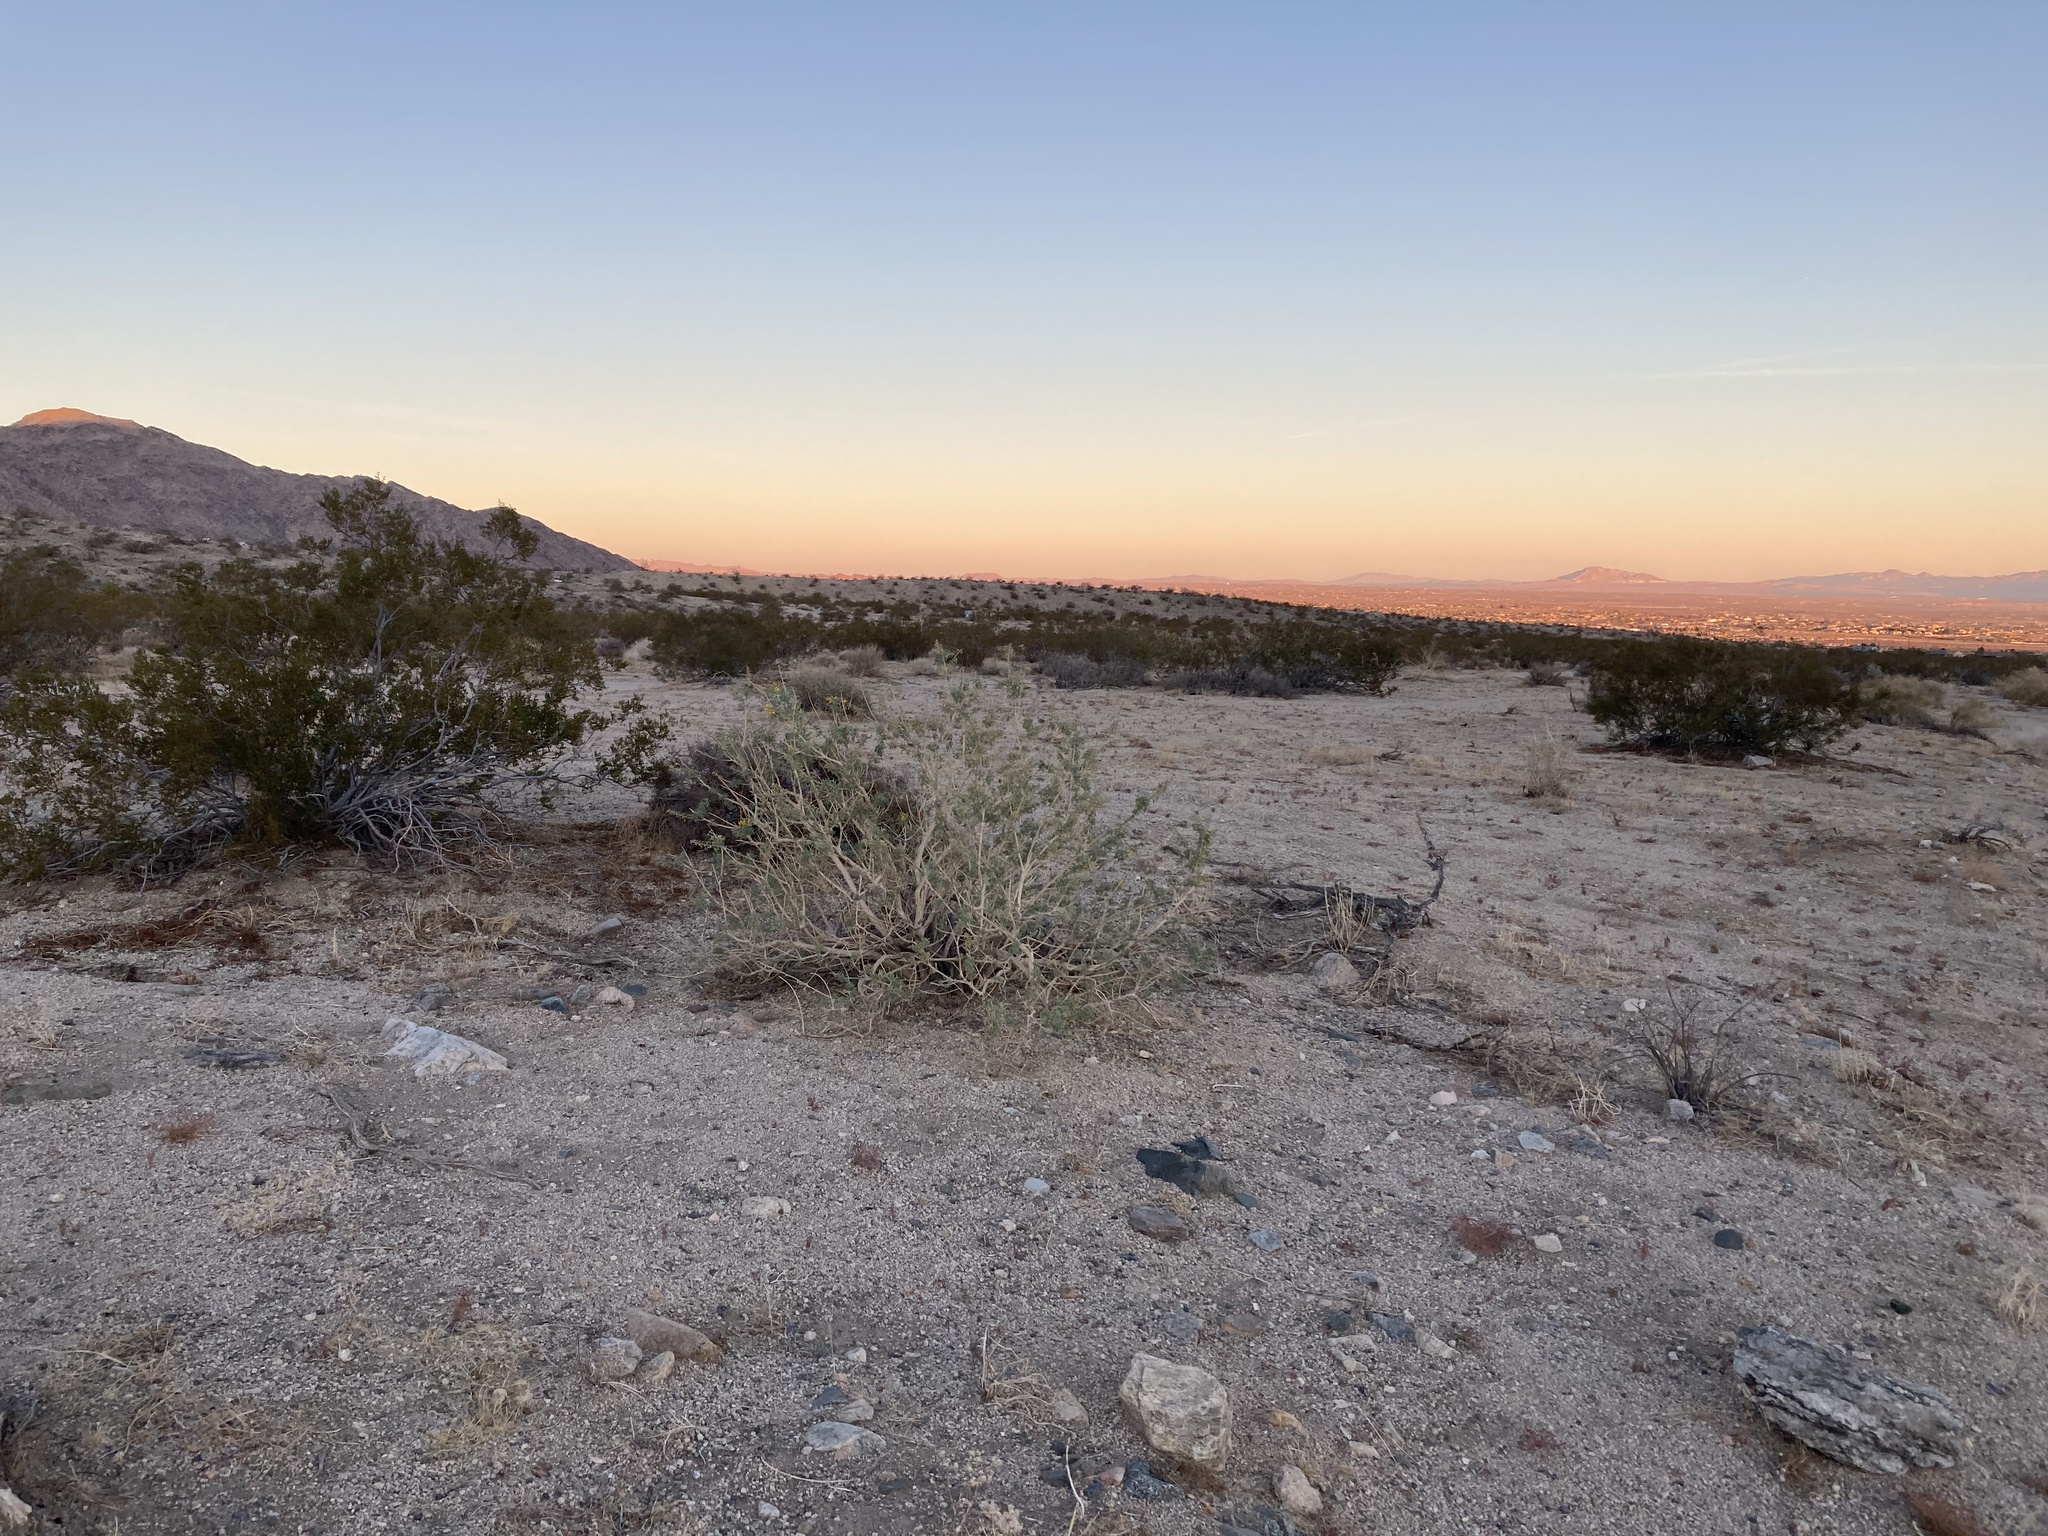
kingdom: Plantae
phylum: Tracheophyta
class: Magnoliopsida
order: Caryophyllales
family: Cactaceae
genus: Cylindropuntia
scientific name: Cylindropuntia ramosissima
